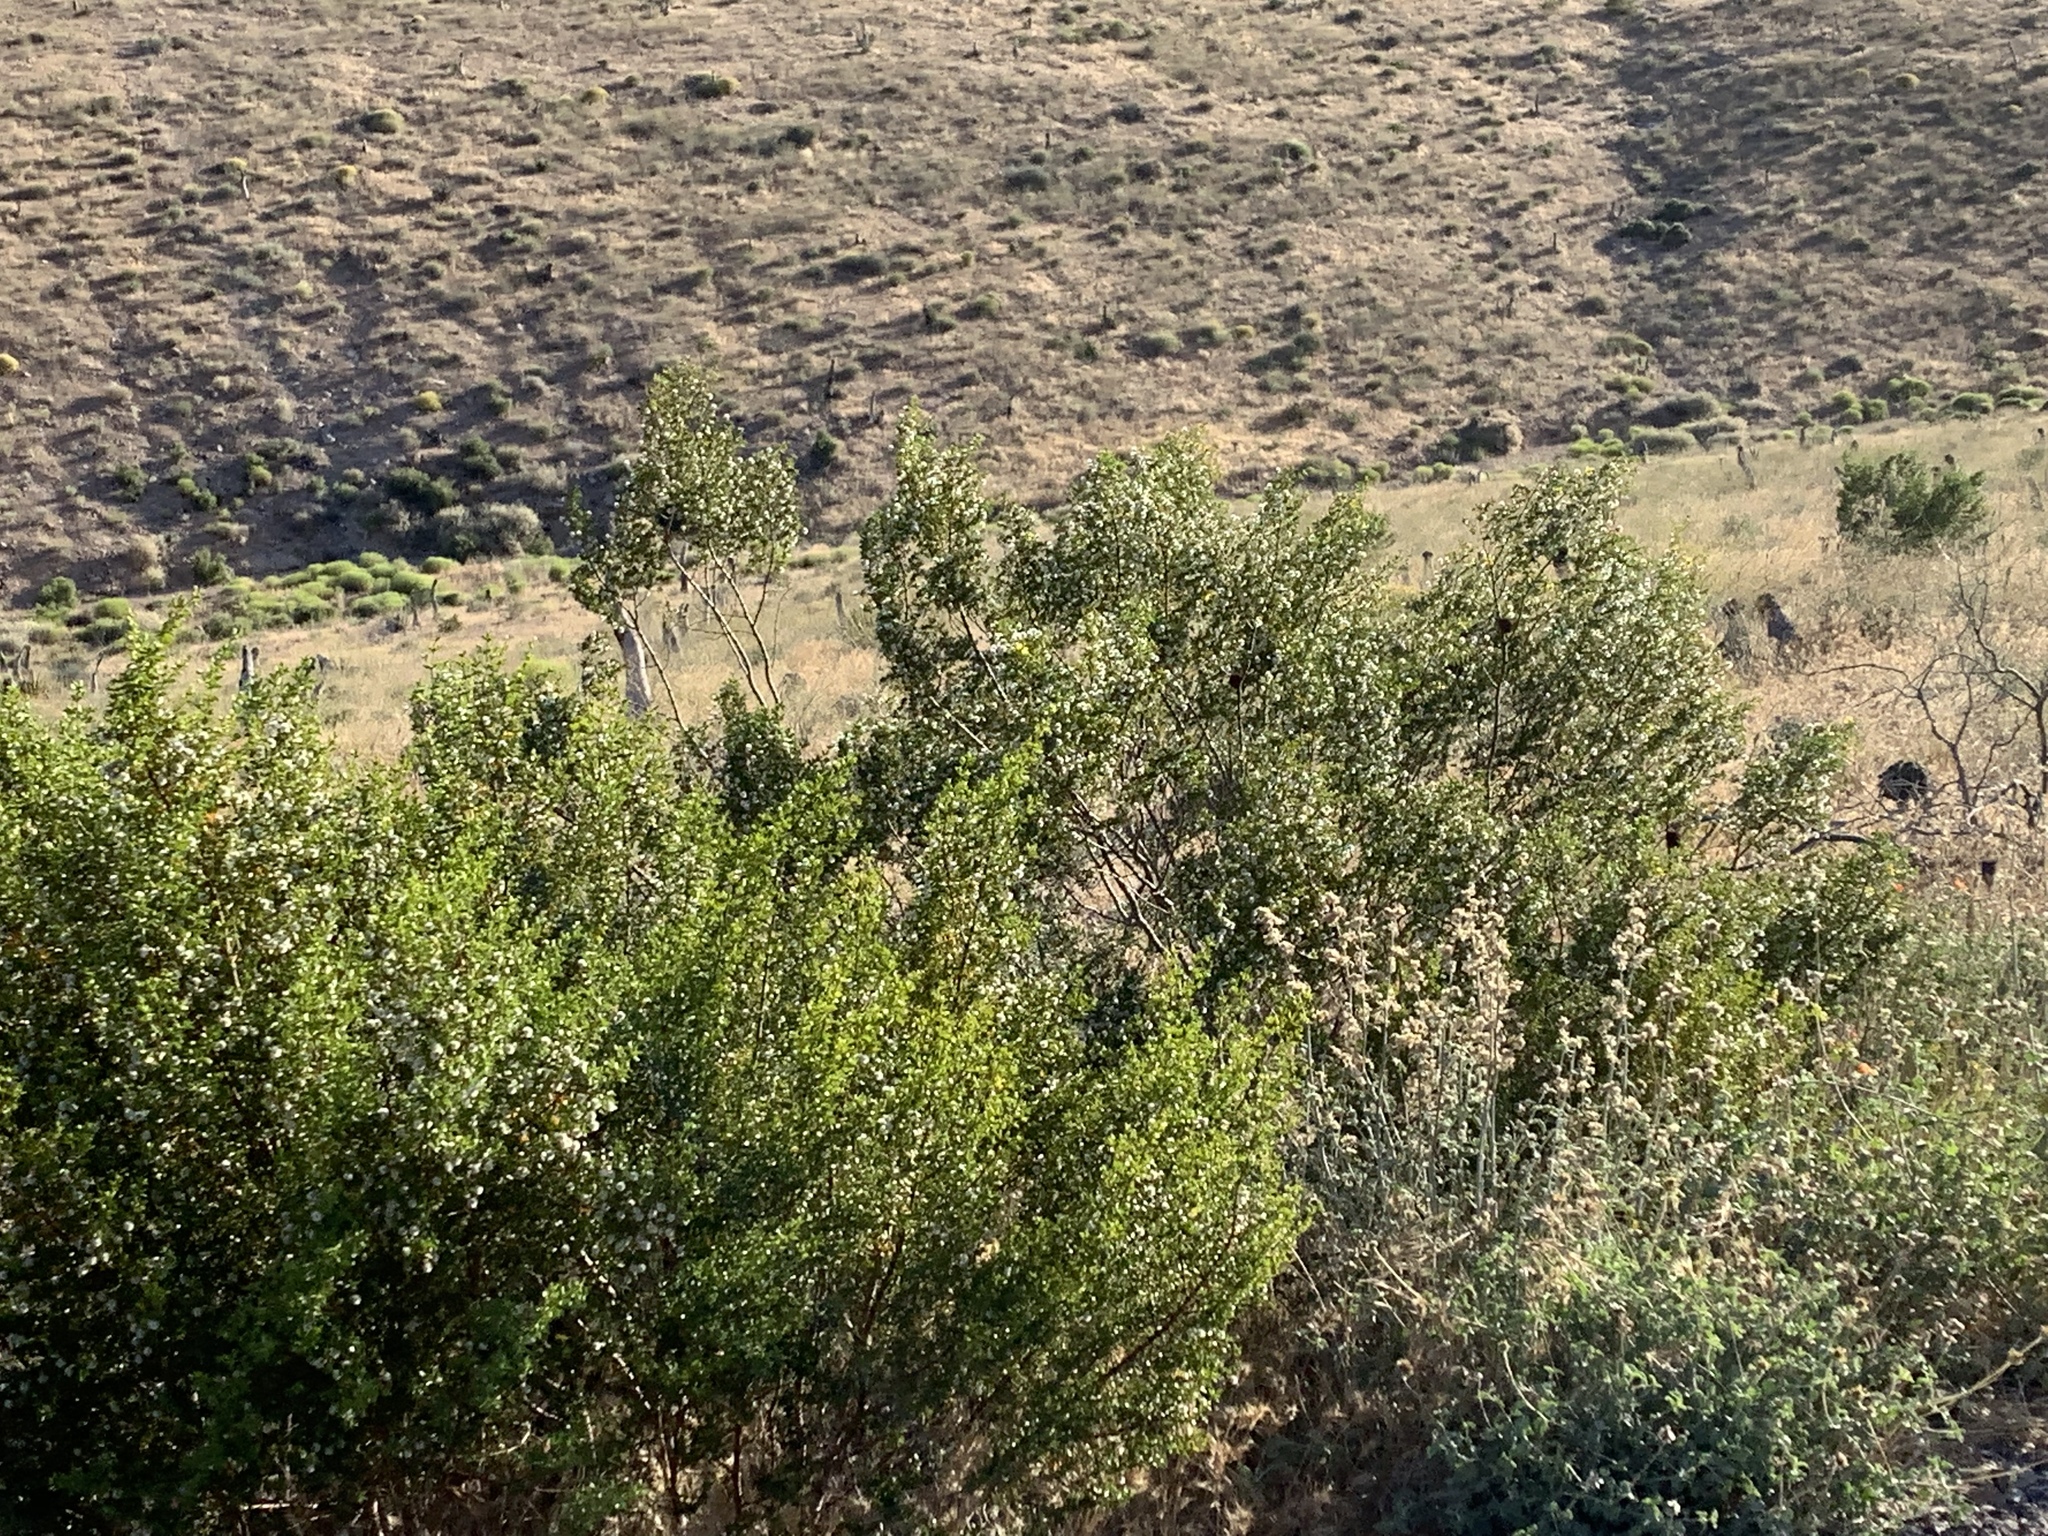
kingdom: Plantae
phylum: Tracheophyta
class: Magnoliopsida
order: Zygophyllales
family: Zygophyllaceae
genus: Larrea
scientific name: Larrea tridentata
